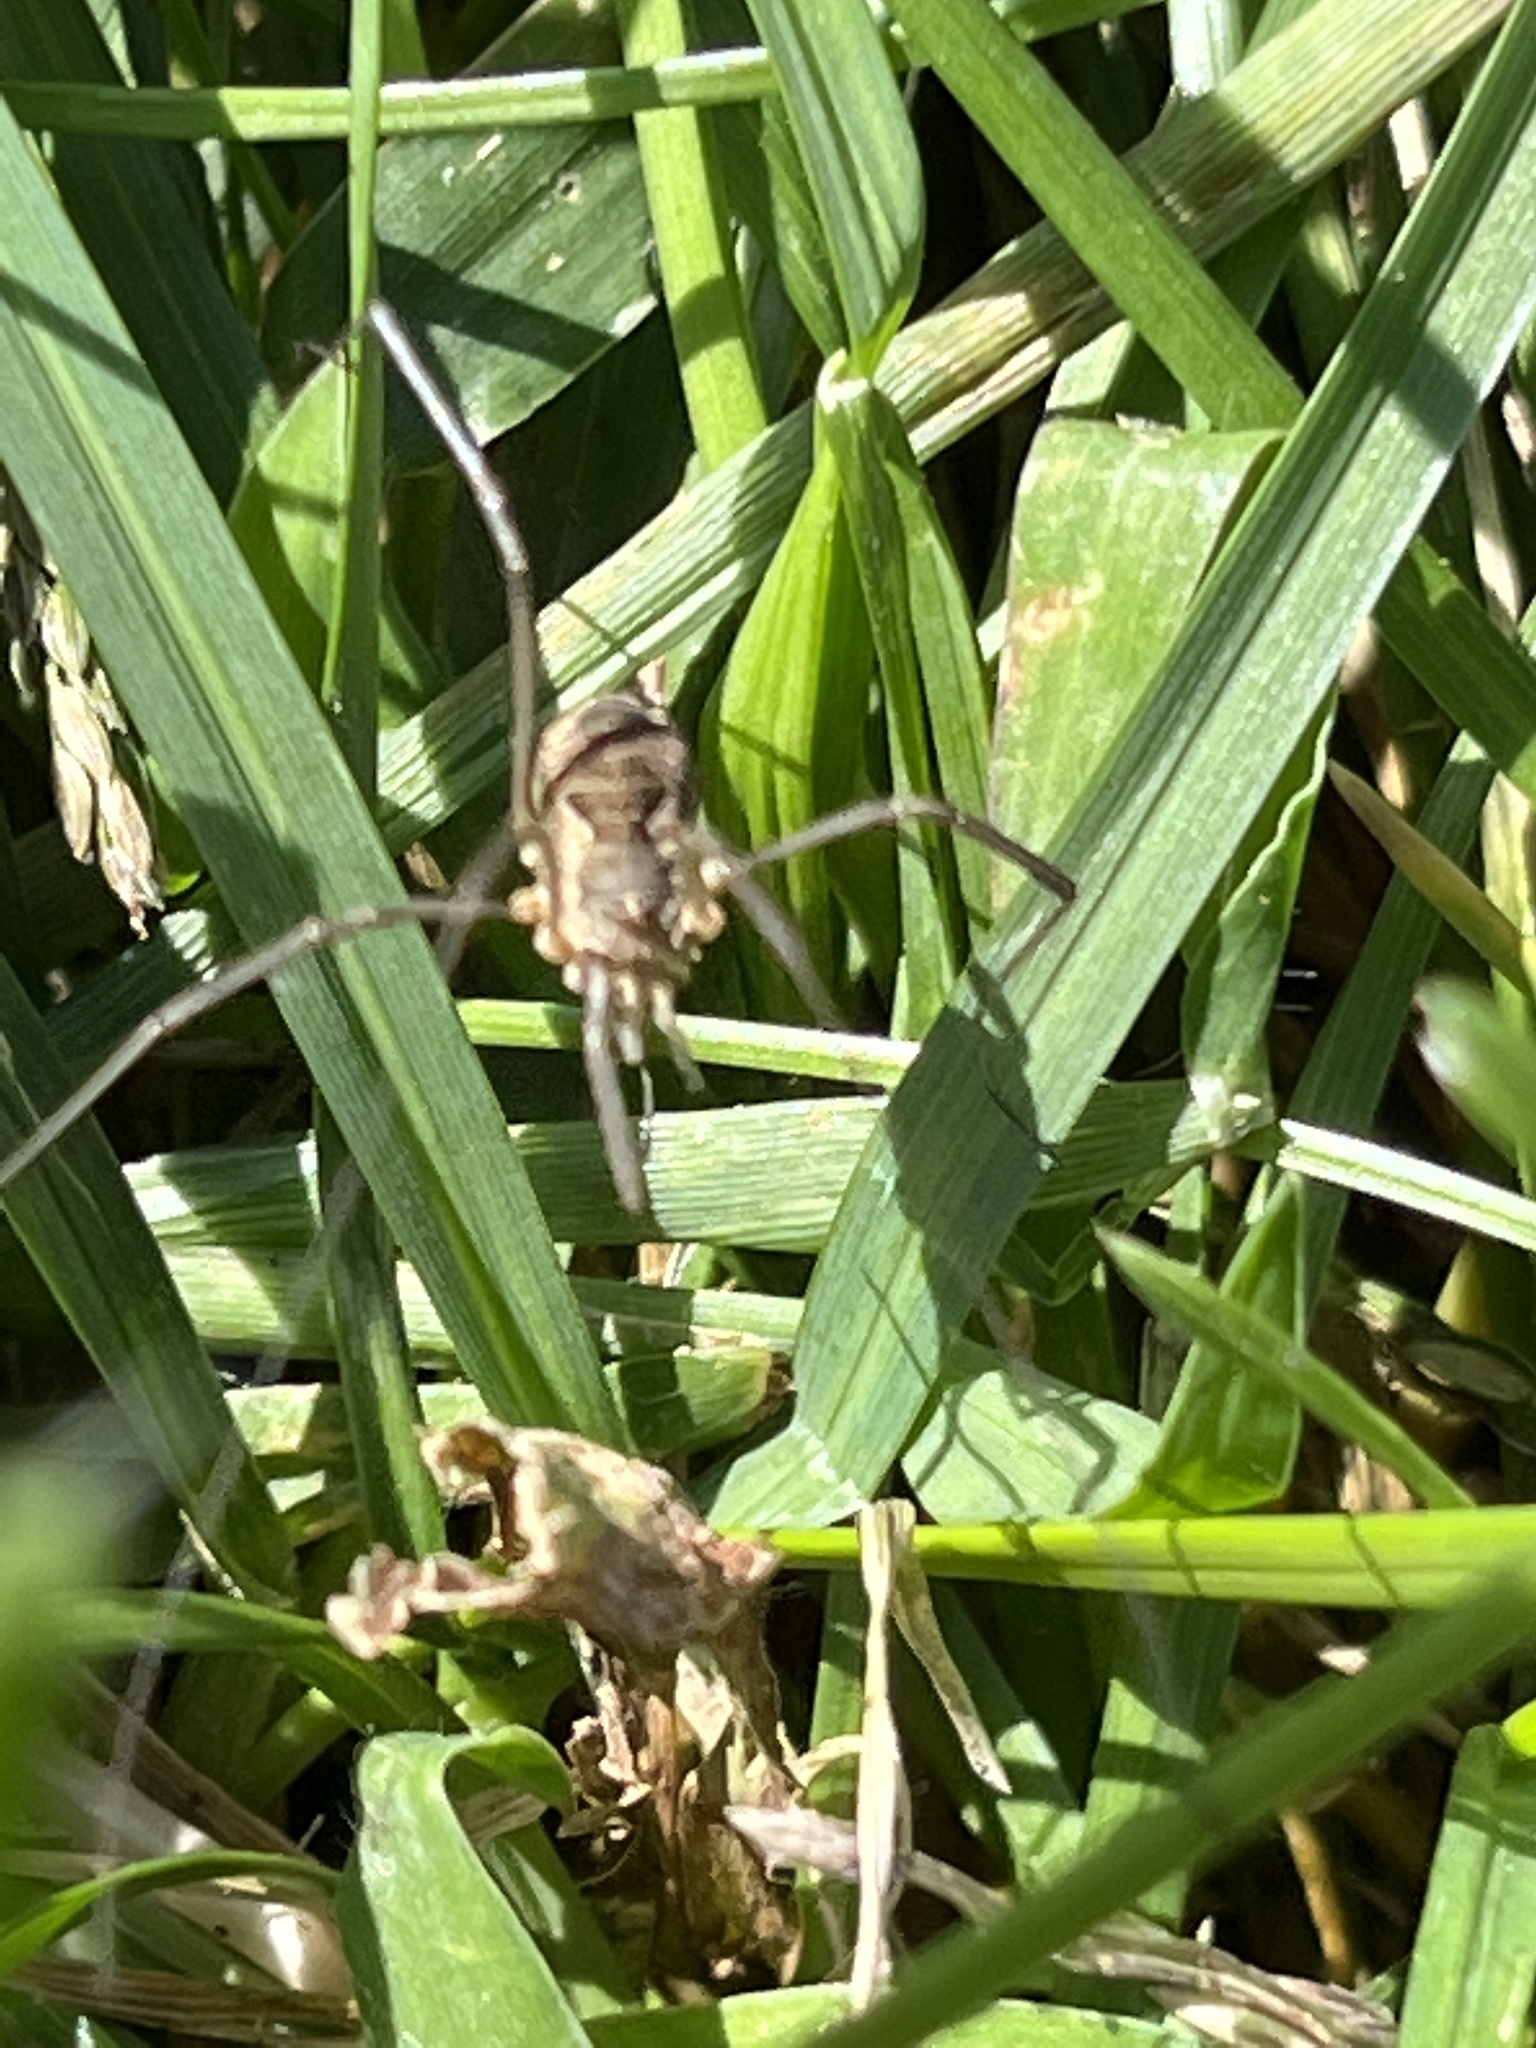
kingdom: Animalia
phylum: Arthropoda
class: Arachnida
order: Opiliones
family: Phalangiidae
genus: Phalangium
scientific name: Phalangium opilio
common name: Daddy longleg
